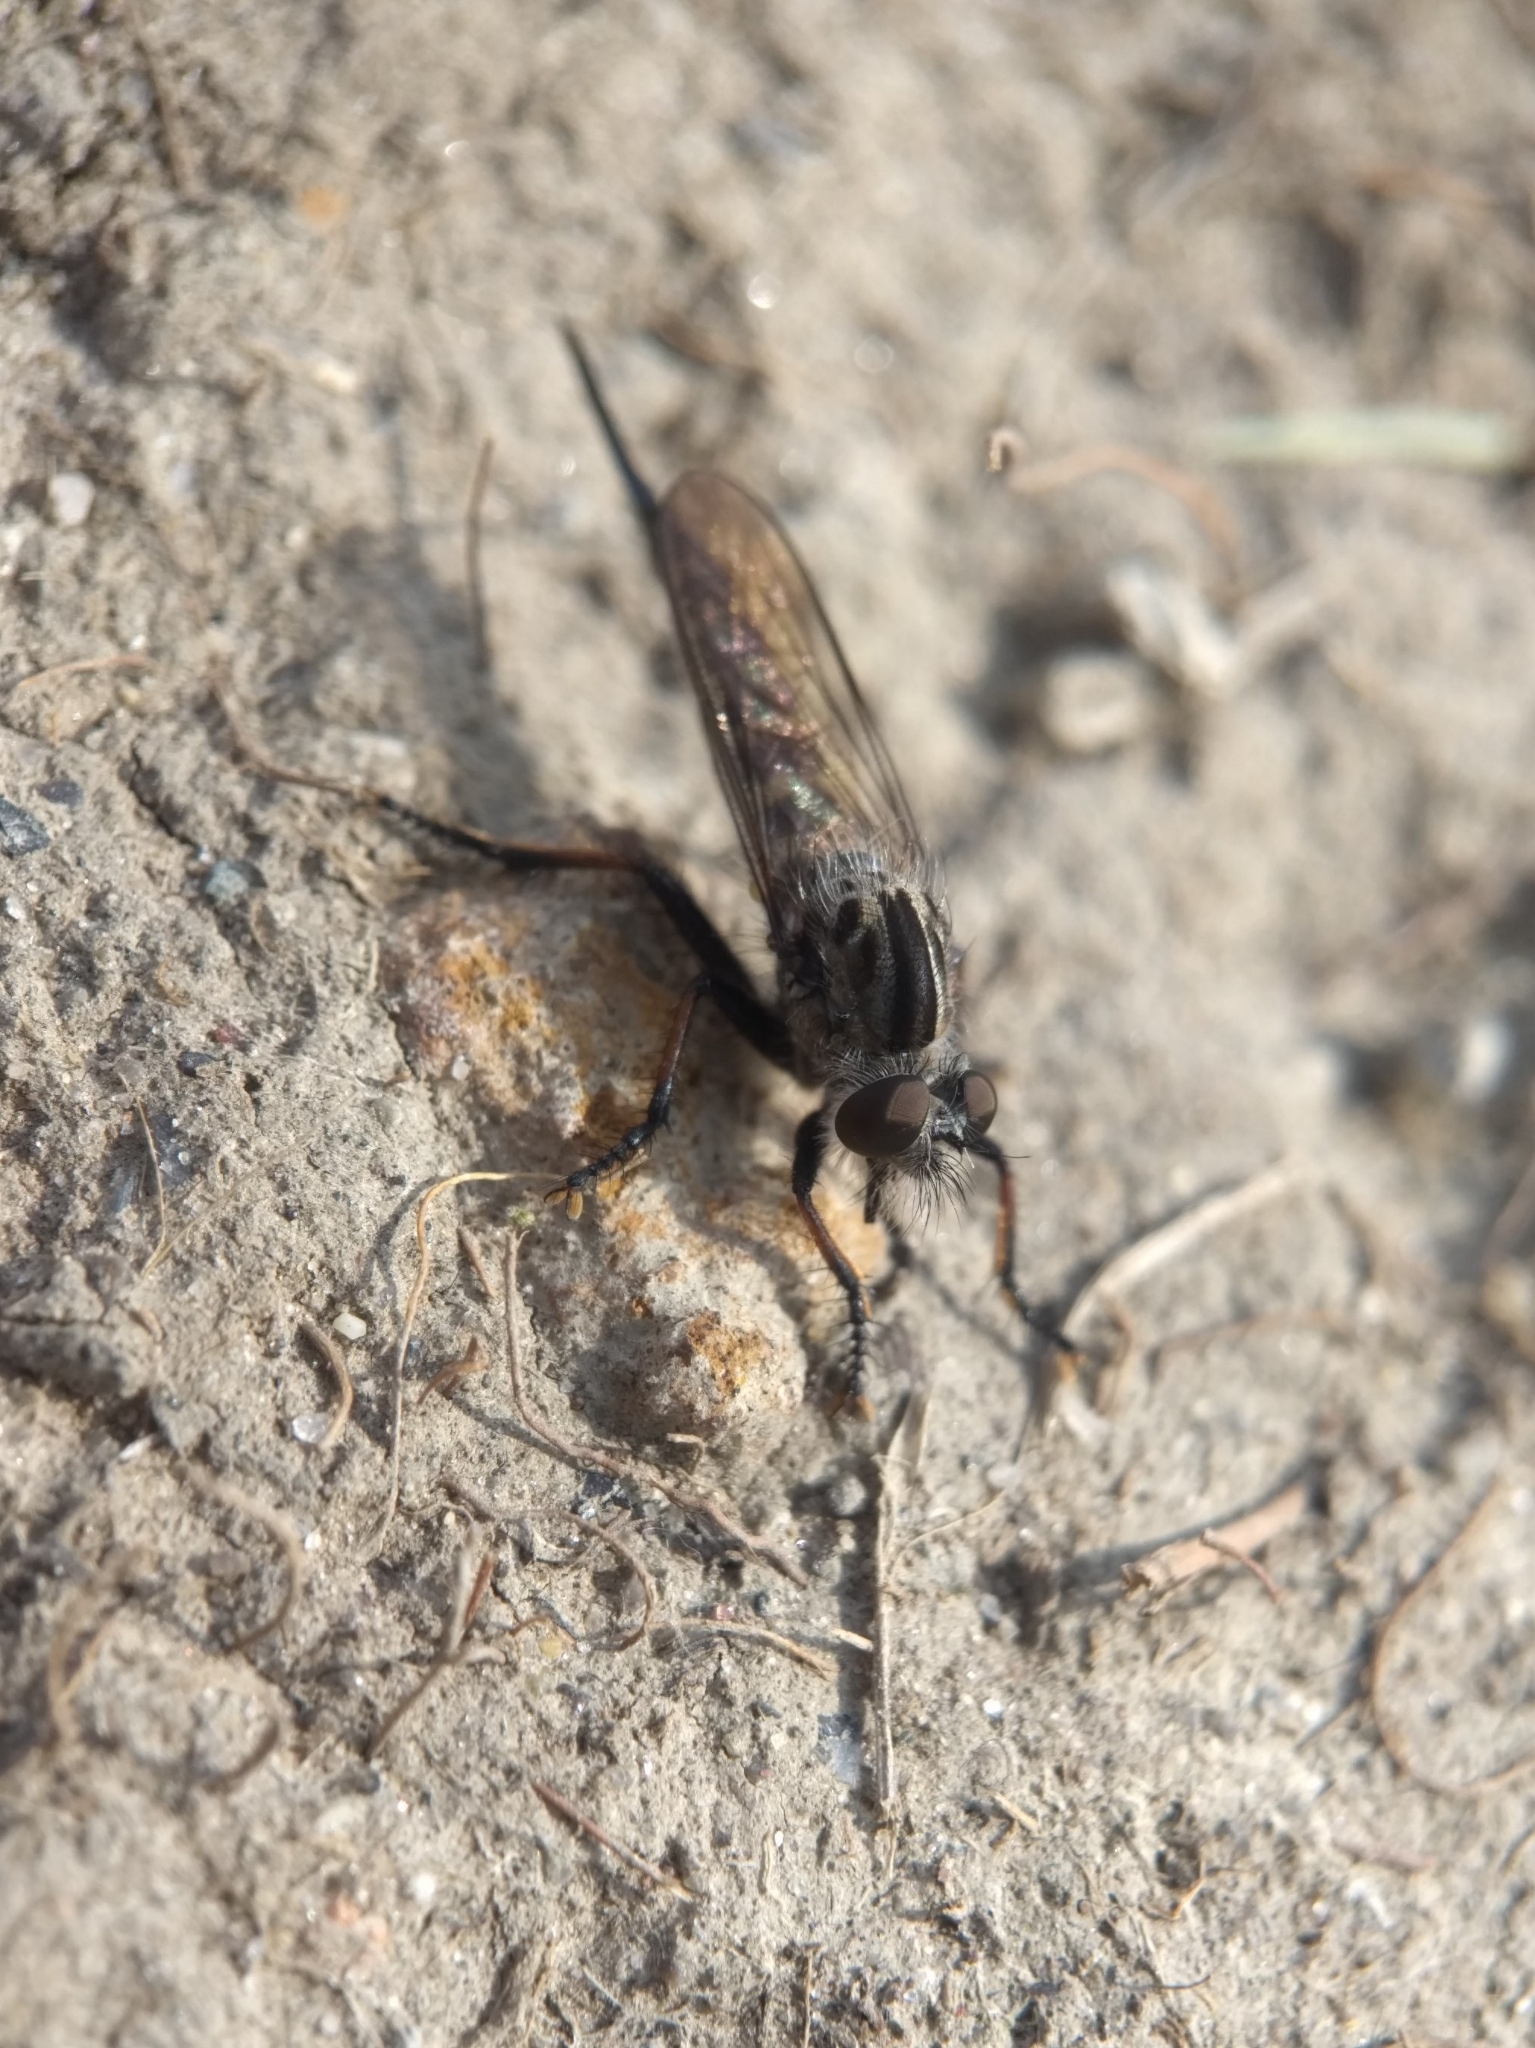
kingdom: Animalia
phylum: Arthropoda
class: Insecta
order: Diptera
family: Asilidae
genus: Efferia
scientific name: Efferia aestuans
